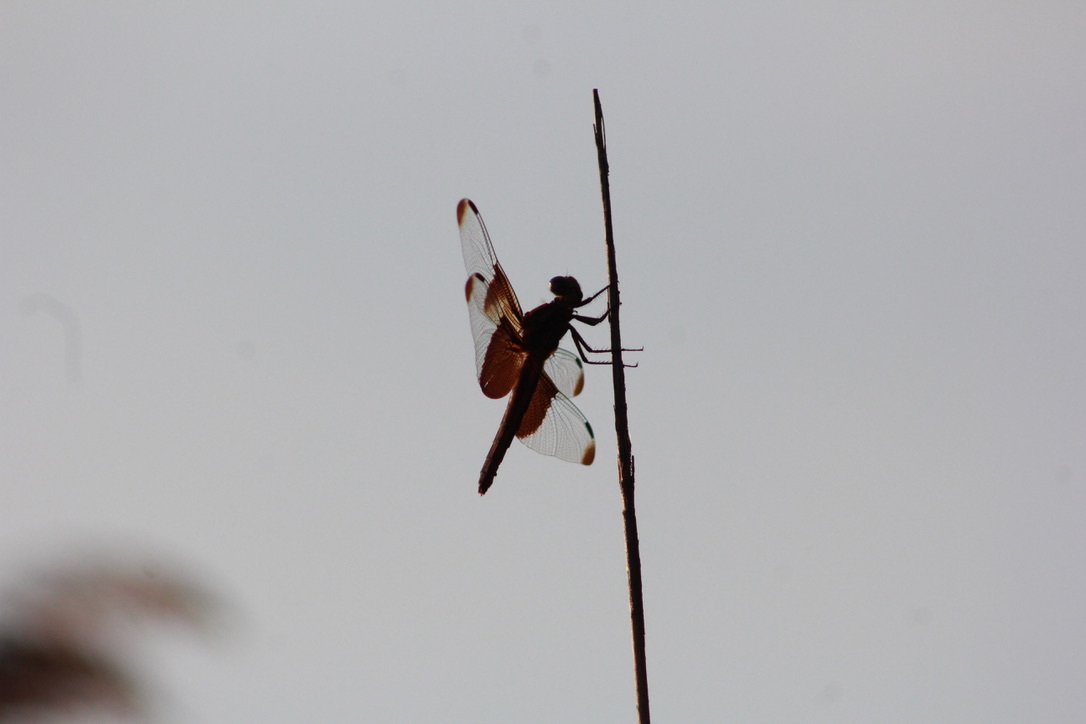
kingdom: Animalia
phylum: Arthropoda
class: Insecta
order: Odonata
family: Libellulidae
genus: Libellula
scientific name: Libellula luctuosa
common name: Widow skimmer
